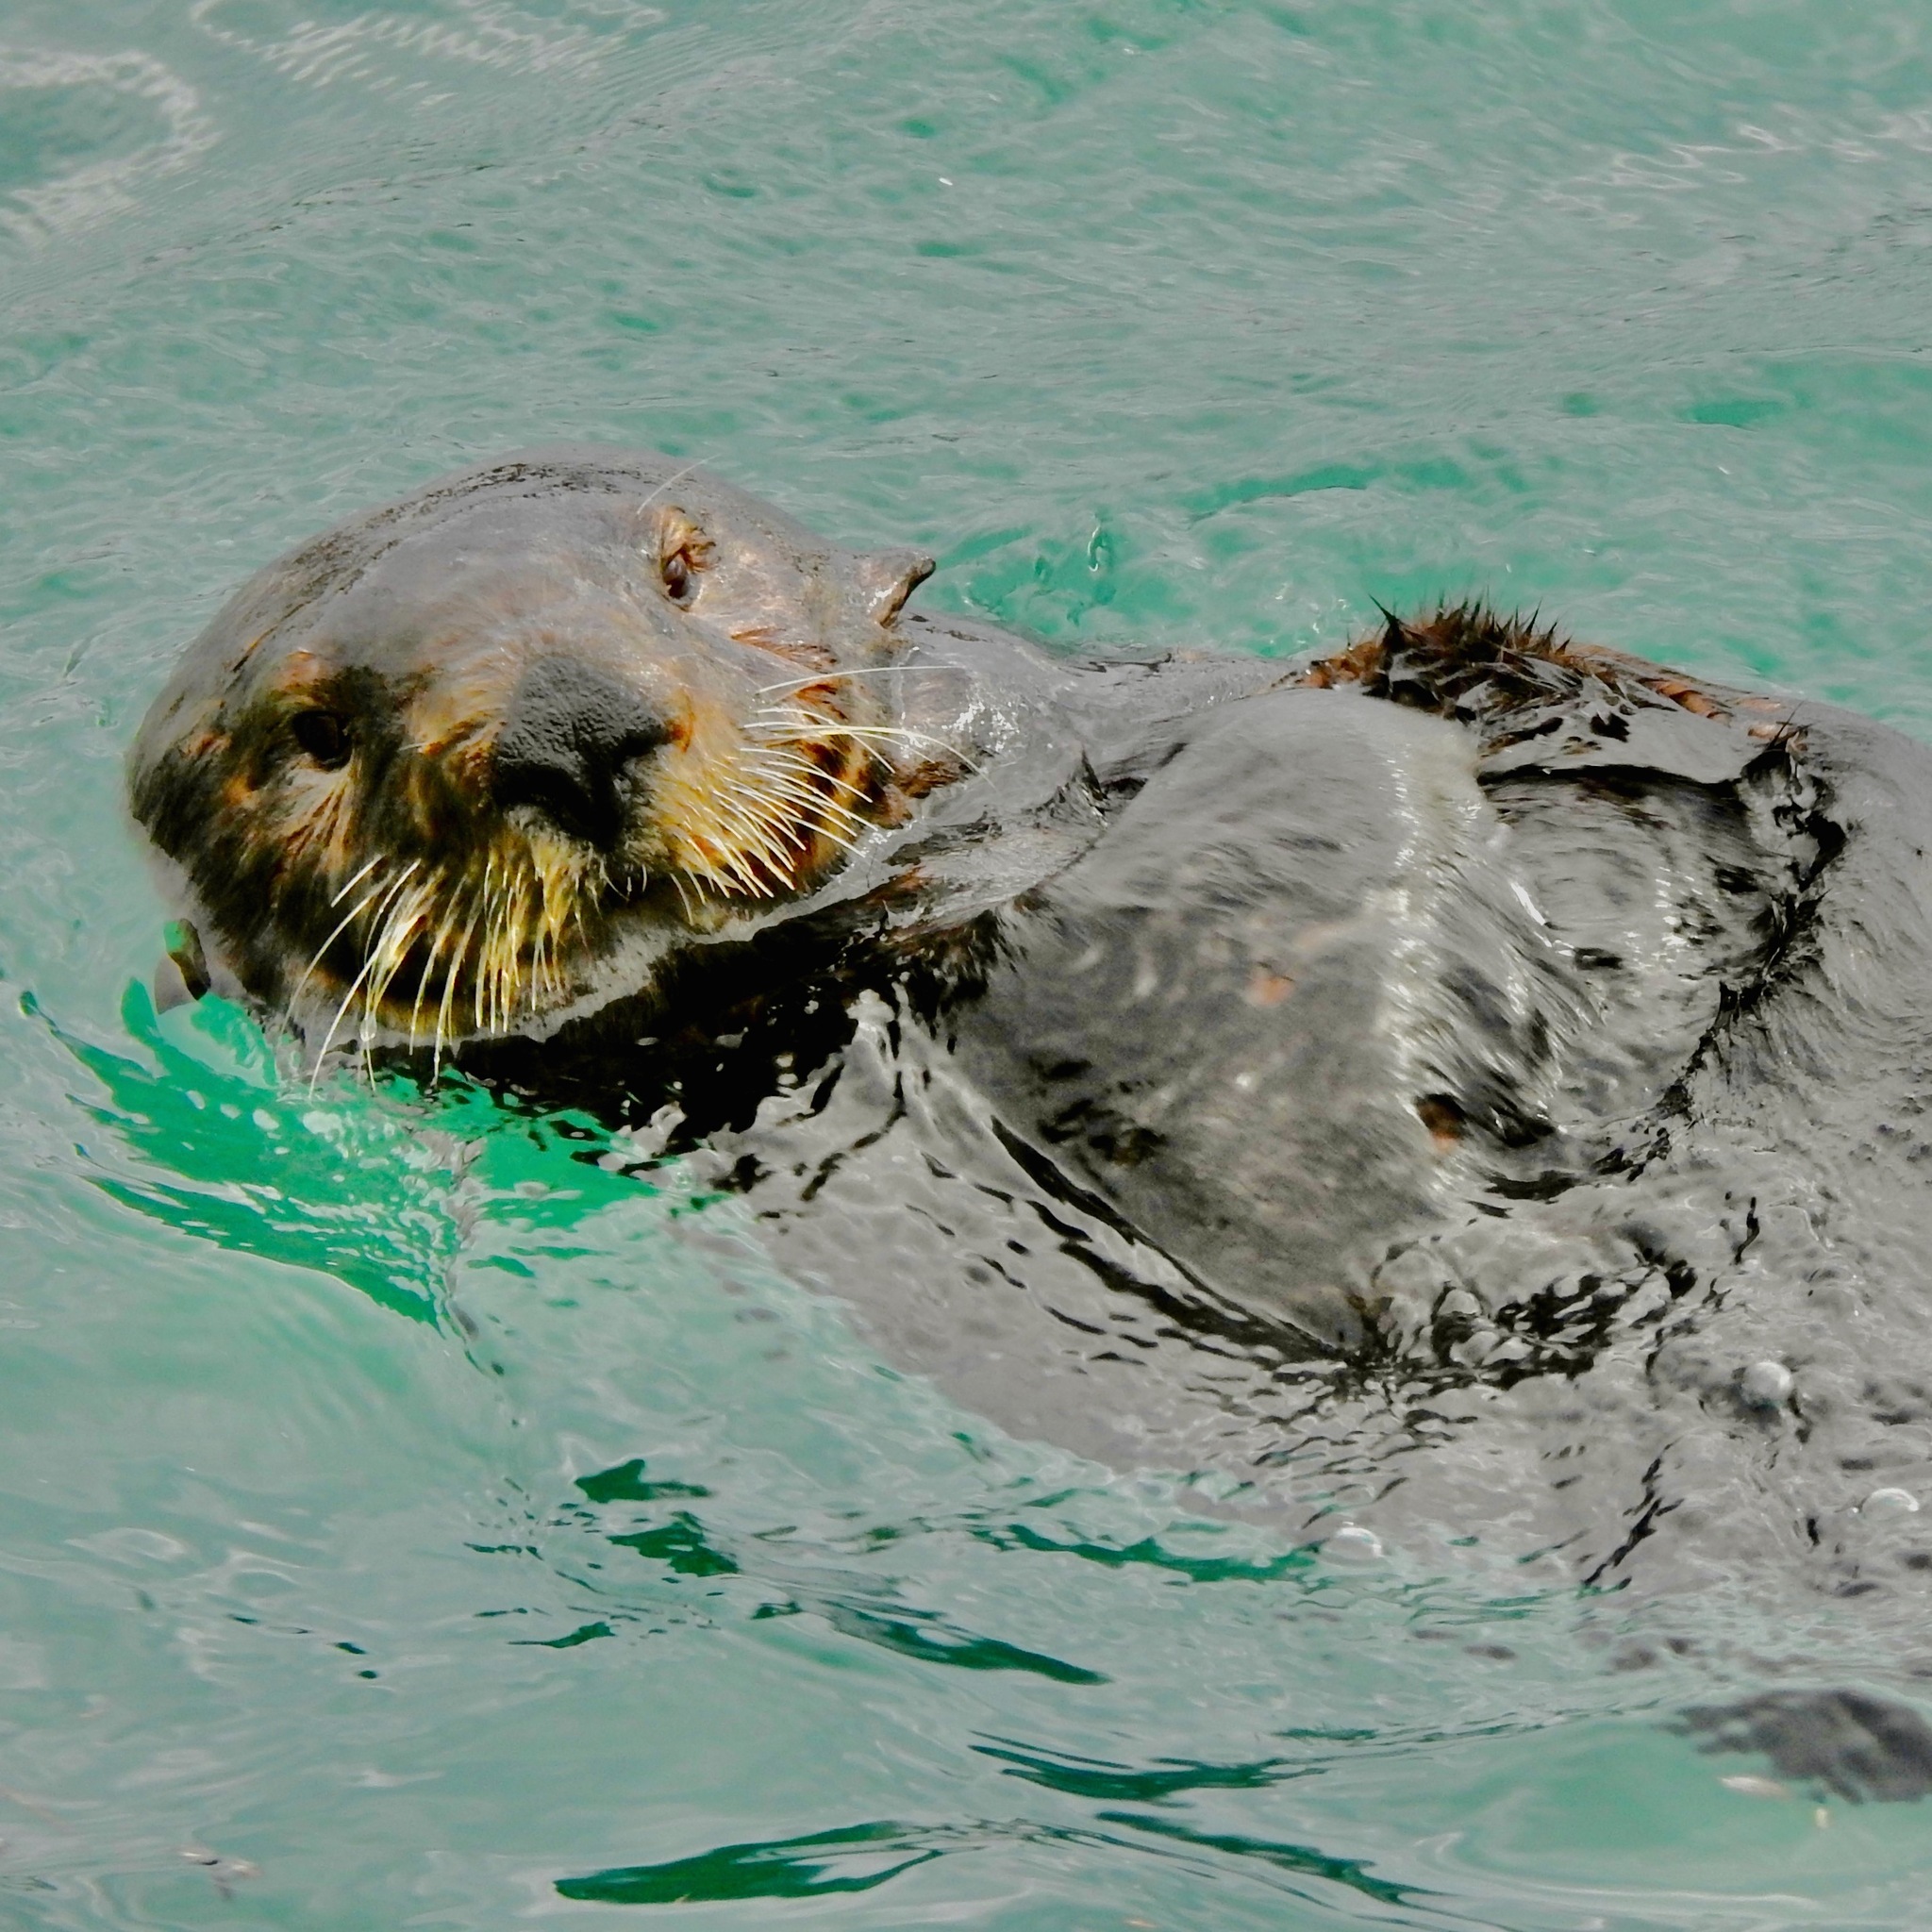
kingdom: Animalia
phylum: Chordata
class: Mammalia
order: Carnivora
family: Mustelidae
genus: Enhydra
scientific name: Enhydra lutris
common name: Sea otter
